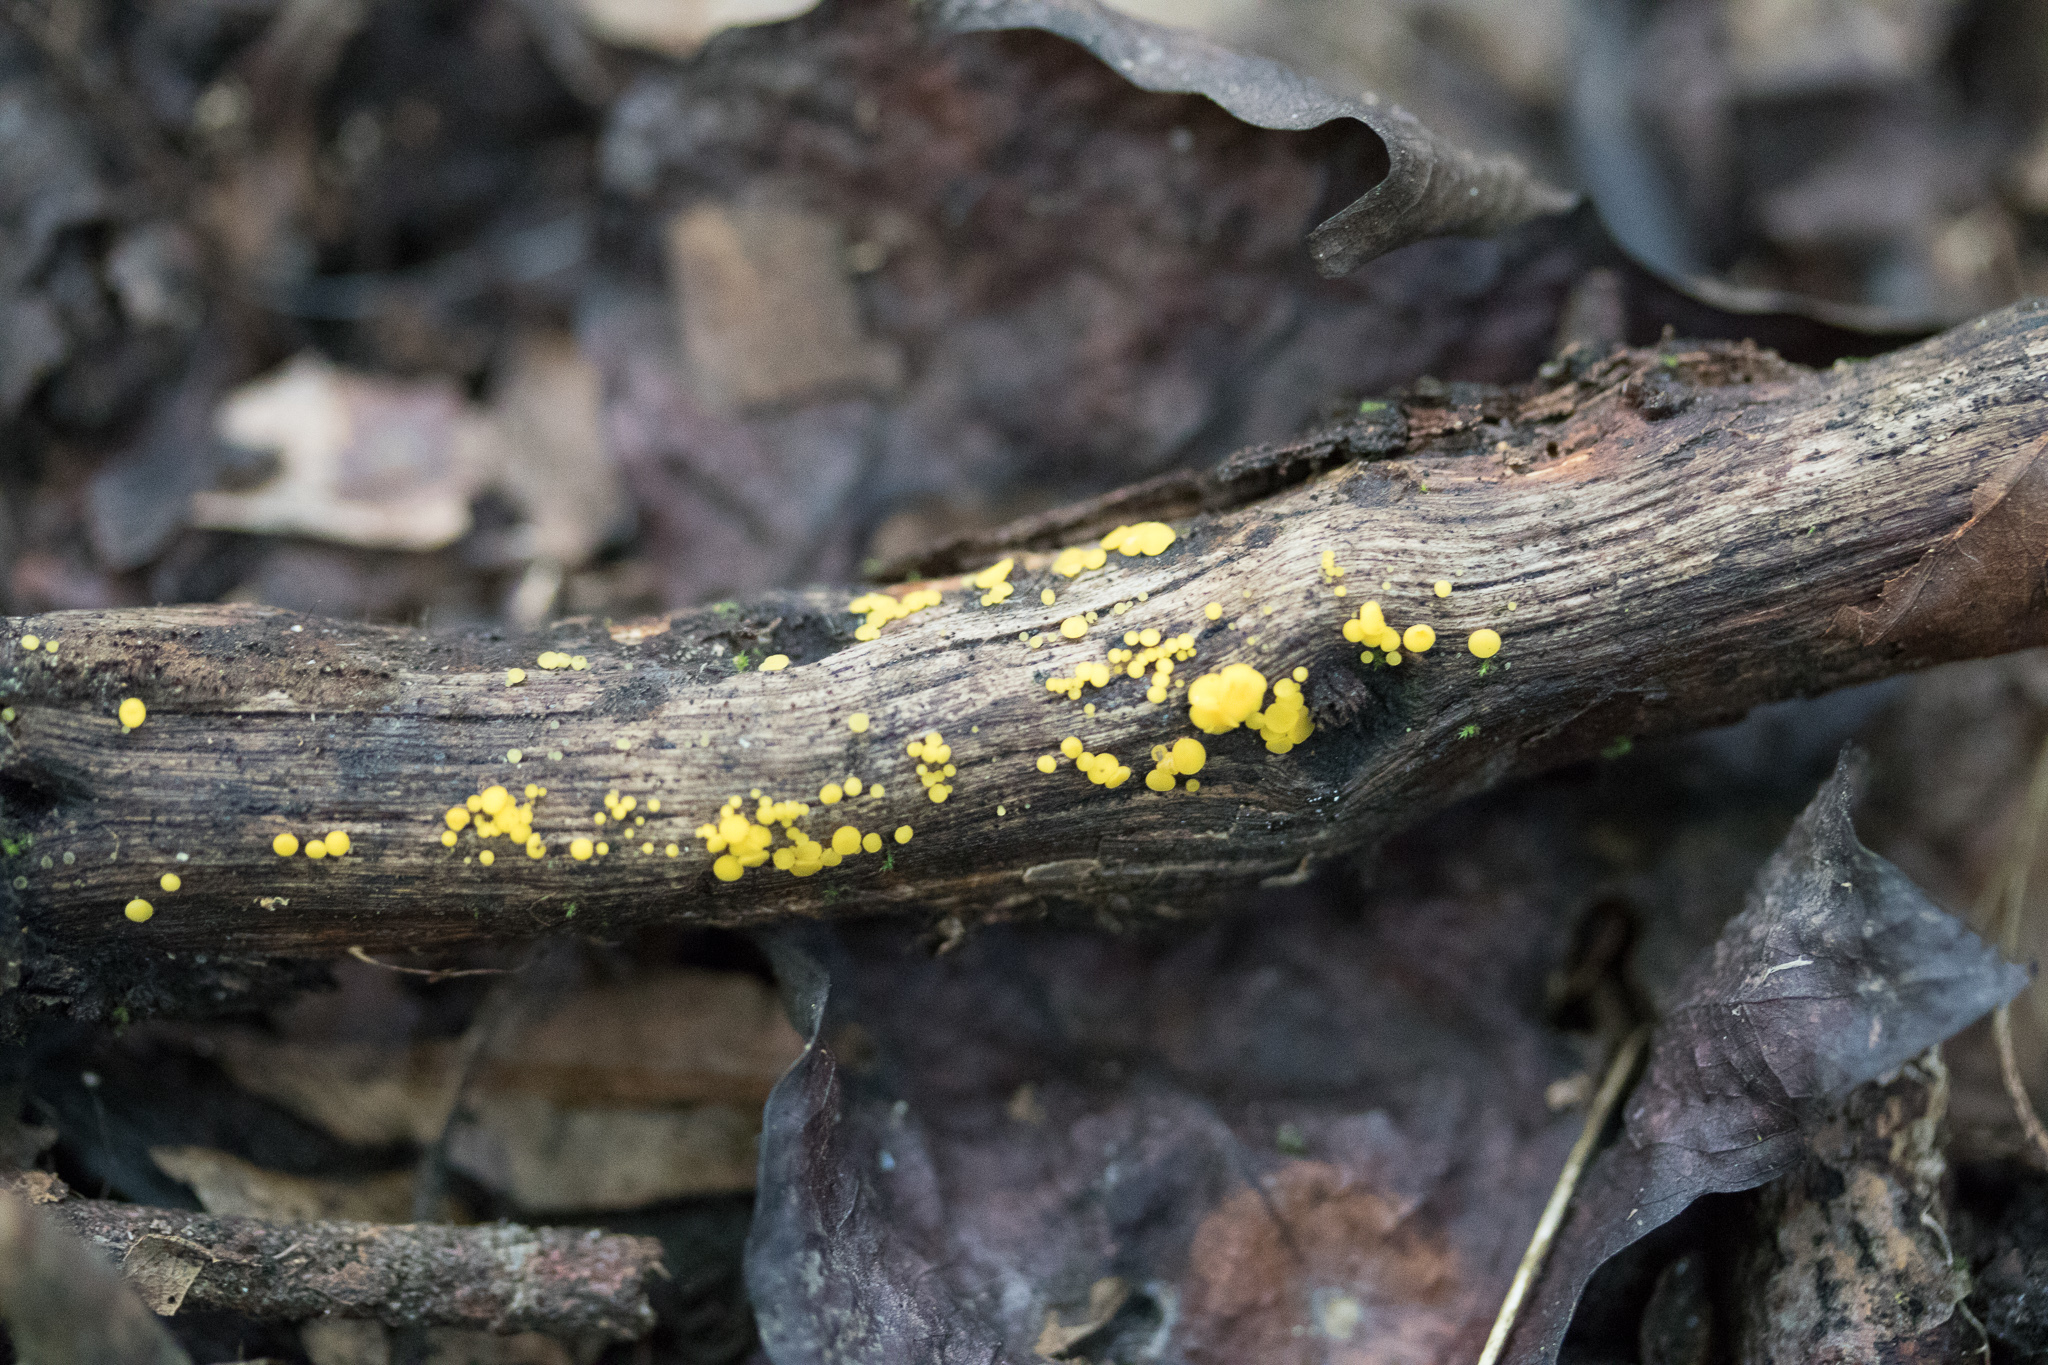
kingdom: Fungi
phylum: Ascomycota
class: Leotiomycetes
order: Helotiales
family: Pezizellaceae
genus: Calycina
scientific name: Calycina citrina
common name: Yellow fairy cups
